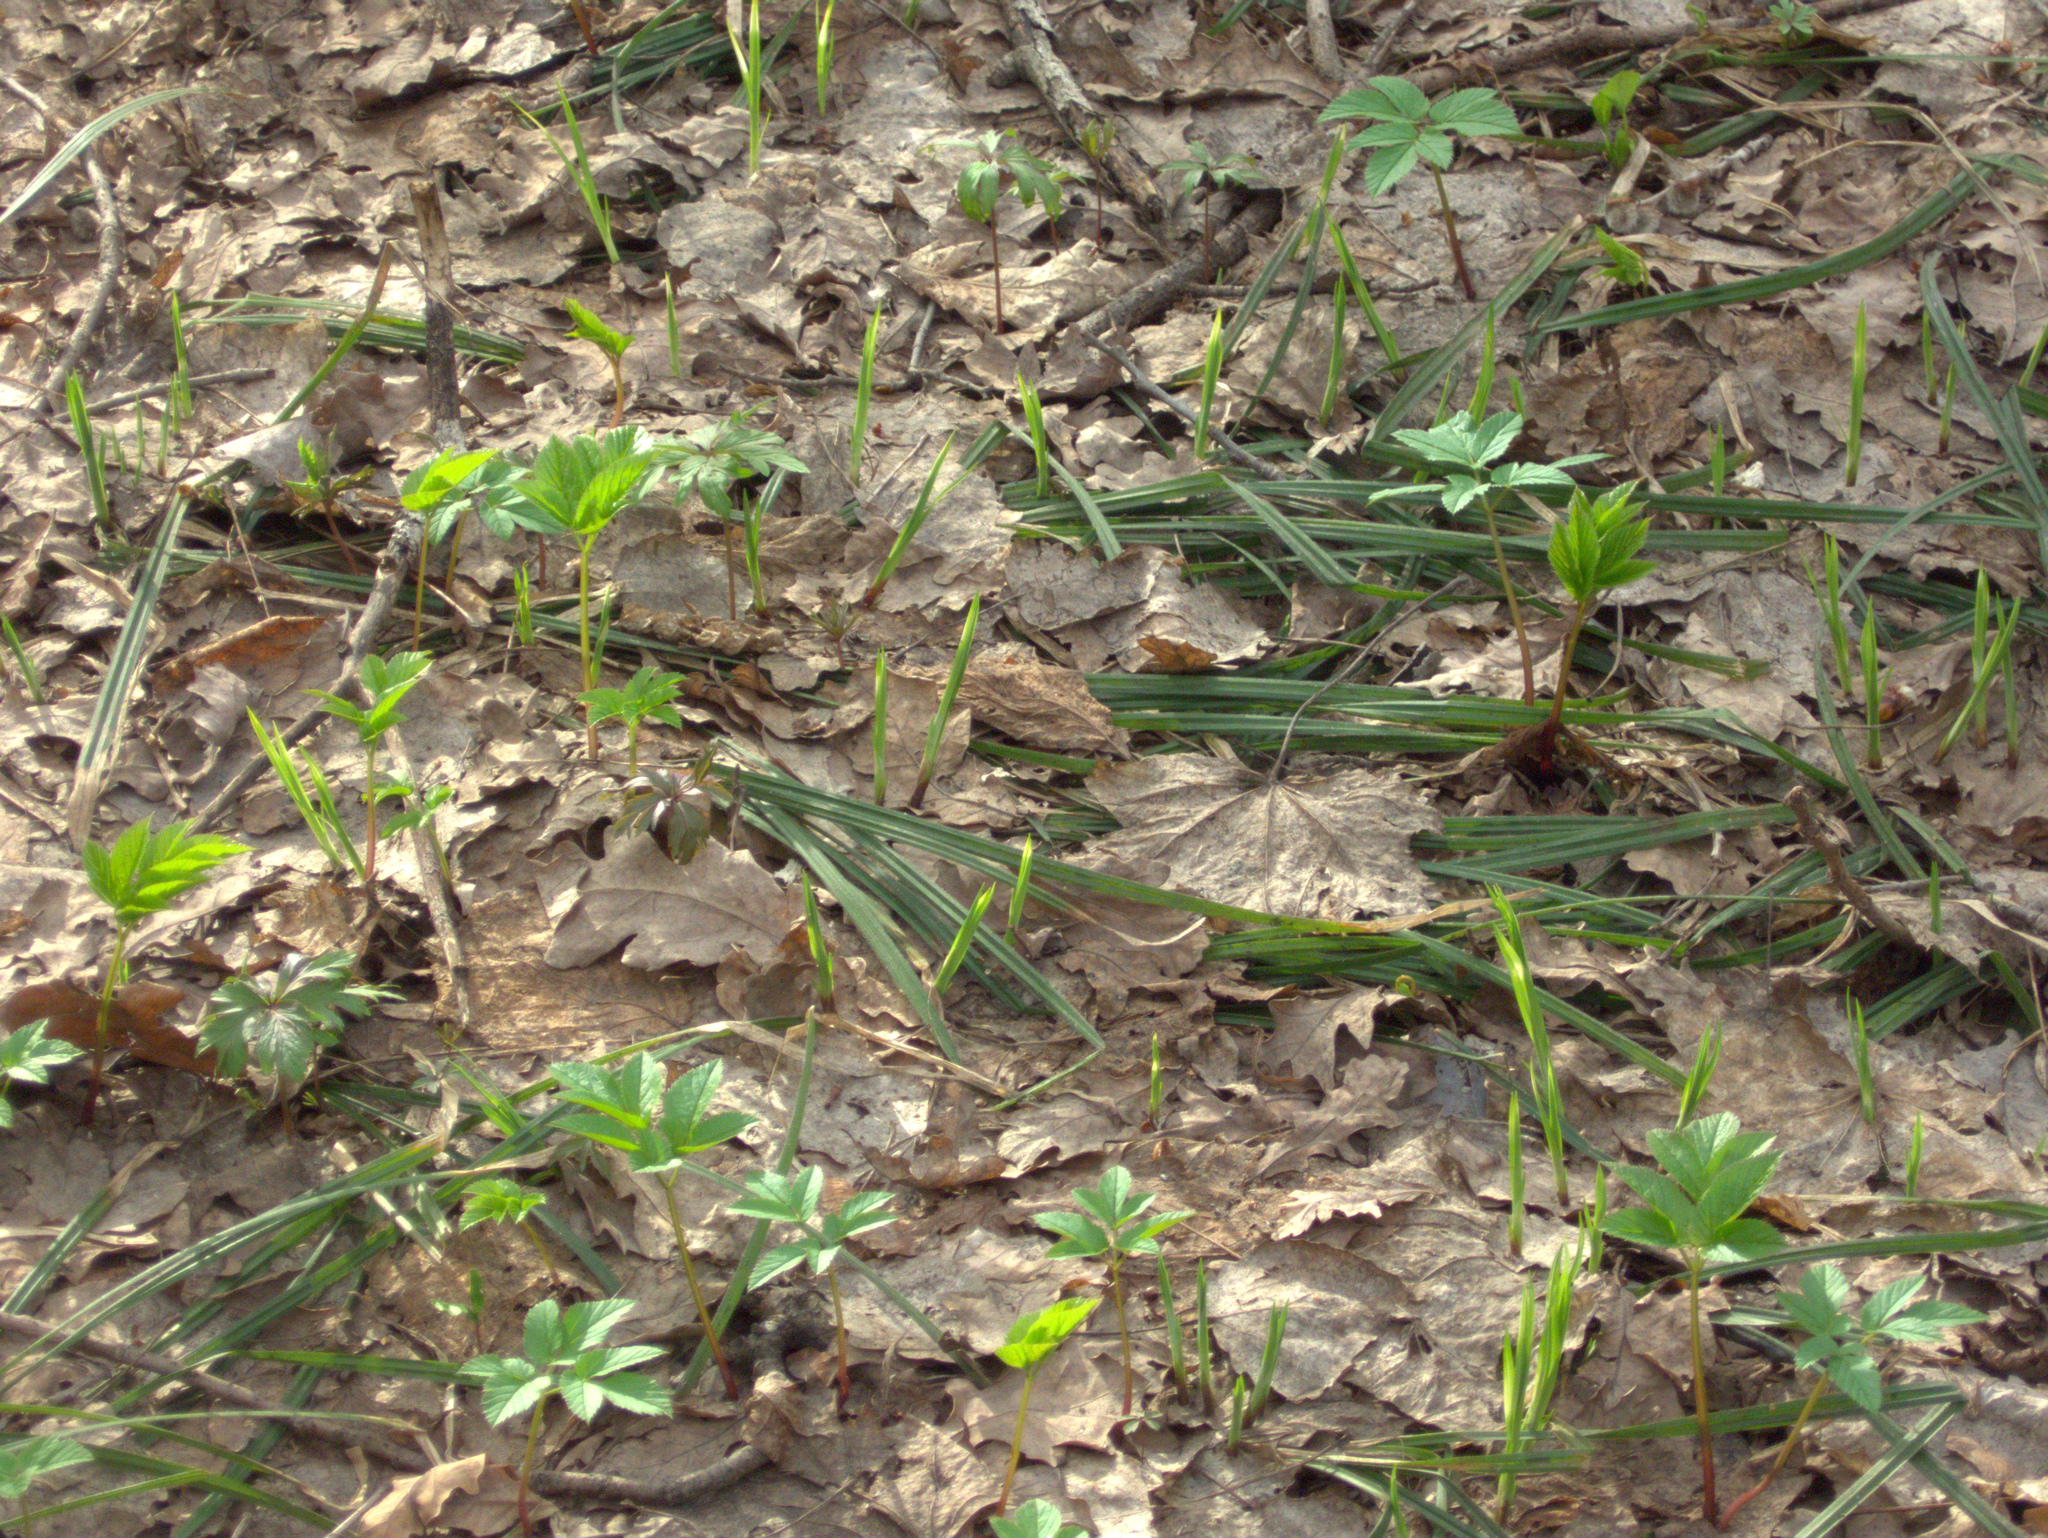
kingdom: Plantae
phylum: Tracheophyta
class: Liliopsida
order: Poales
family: Cyperaceae
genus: Carex
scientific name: Carex pilosa
